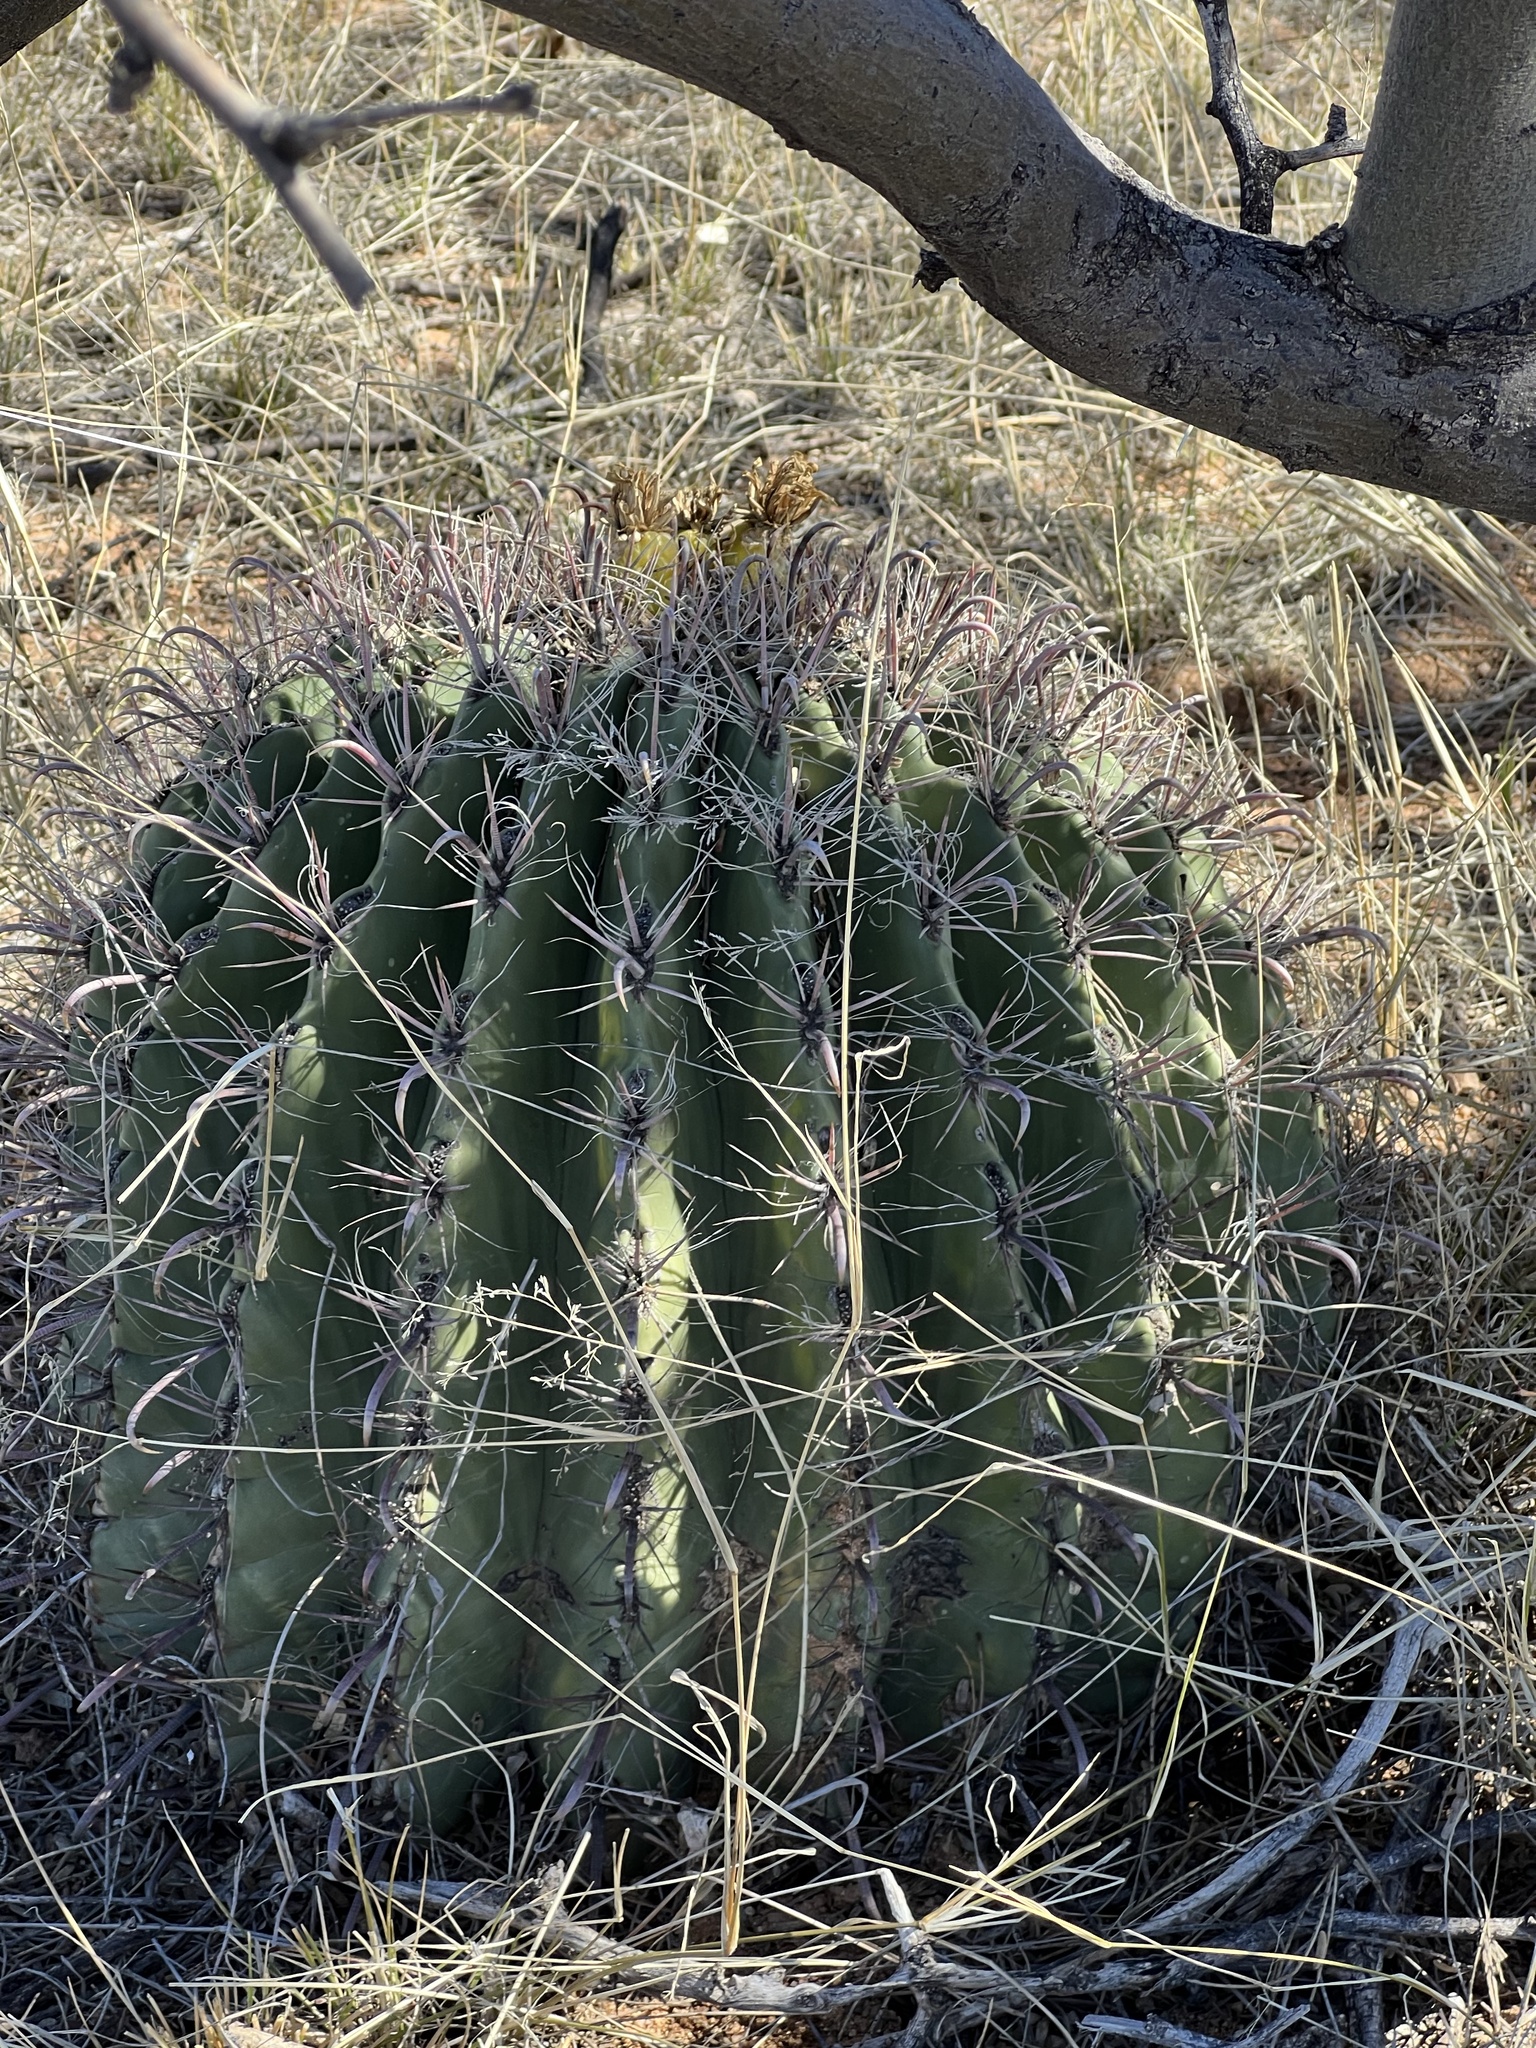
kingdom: Plantae
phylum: Tracheophyta
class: Magnoliopsida
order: Caryophyllales
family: Cactaceae
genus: Ferocactus
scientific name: Ferocactus wislizeni
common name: Candy barrel cactus
